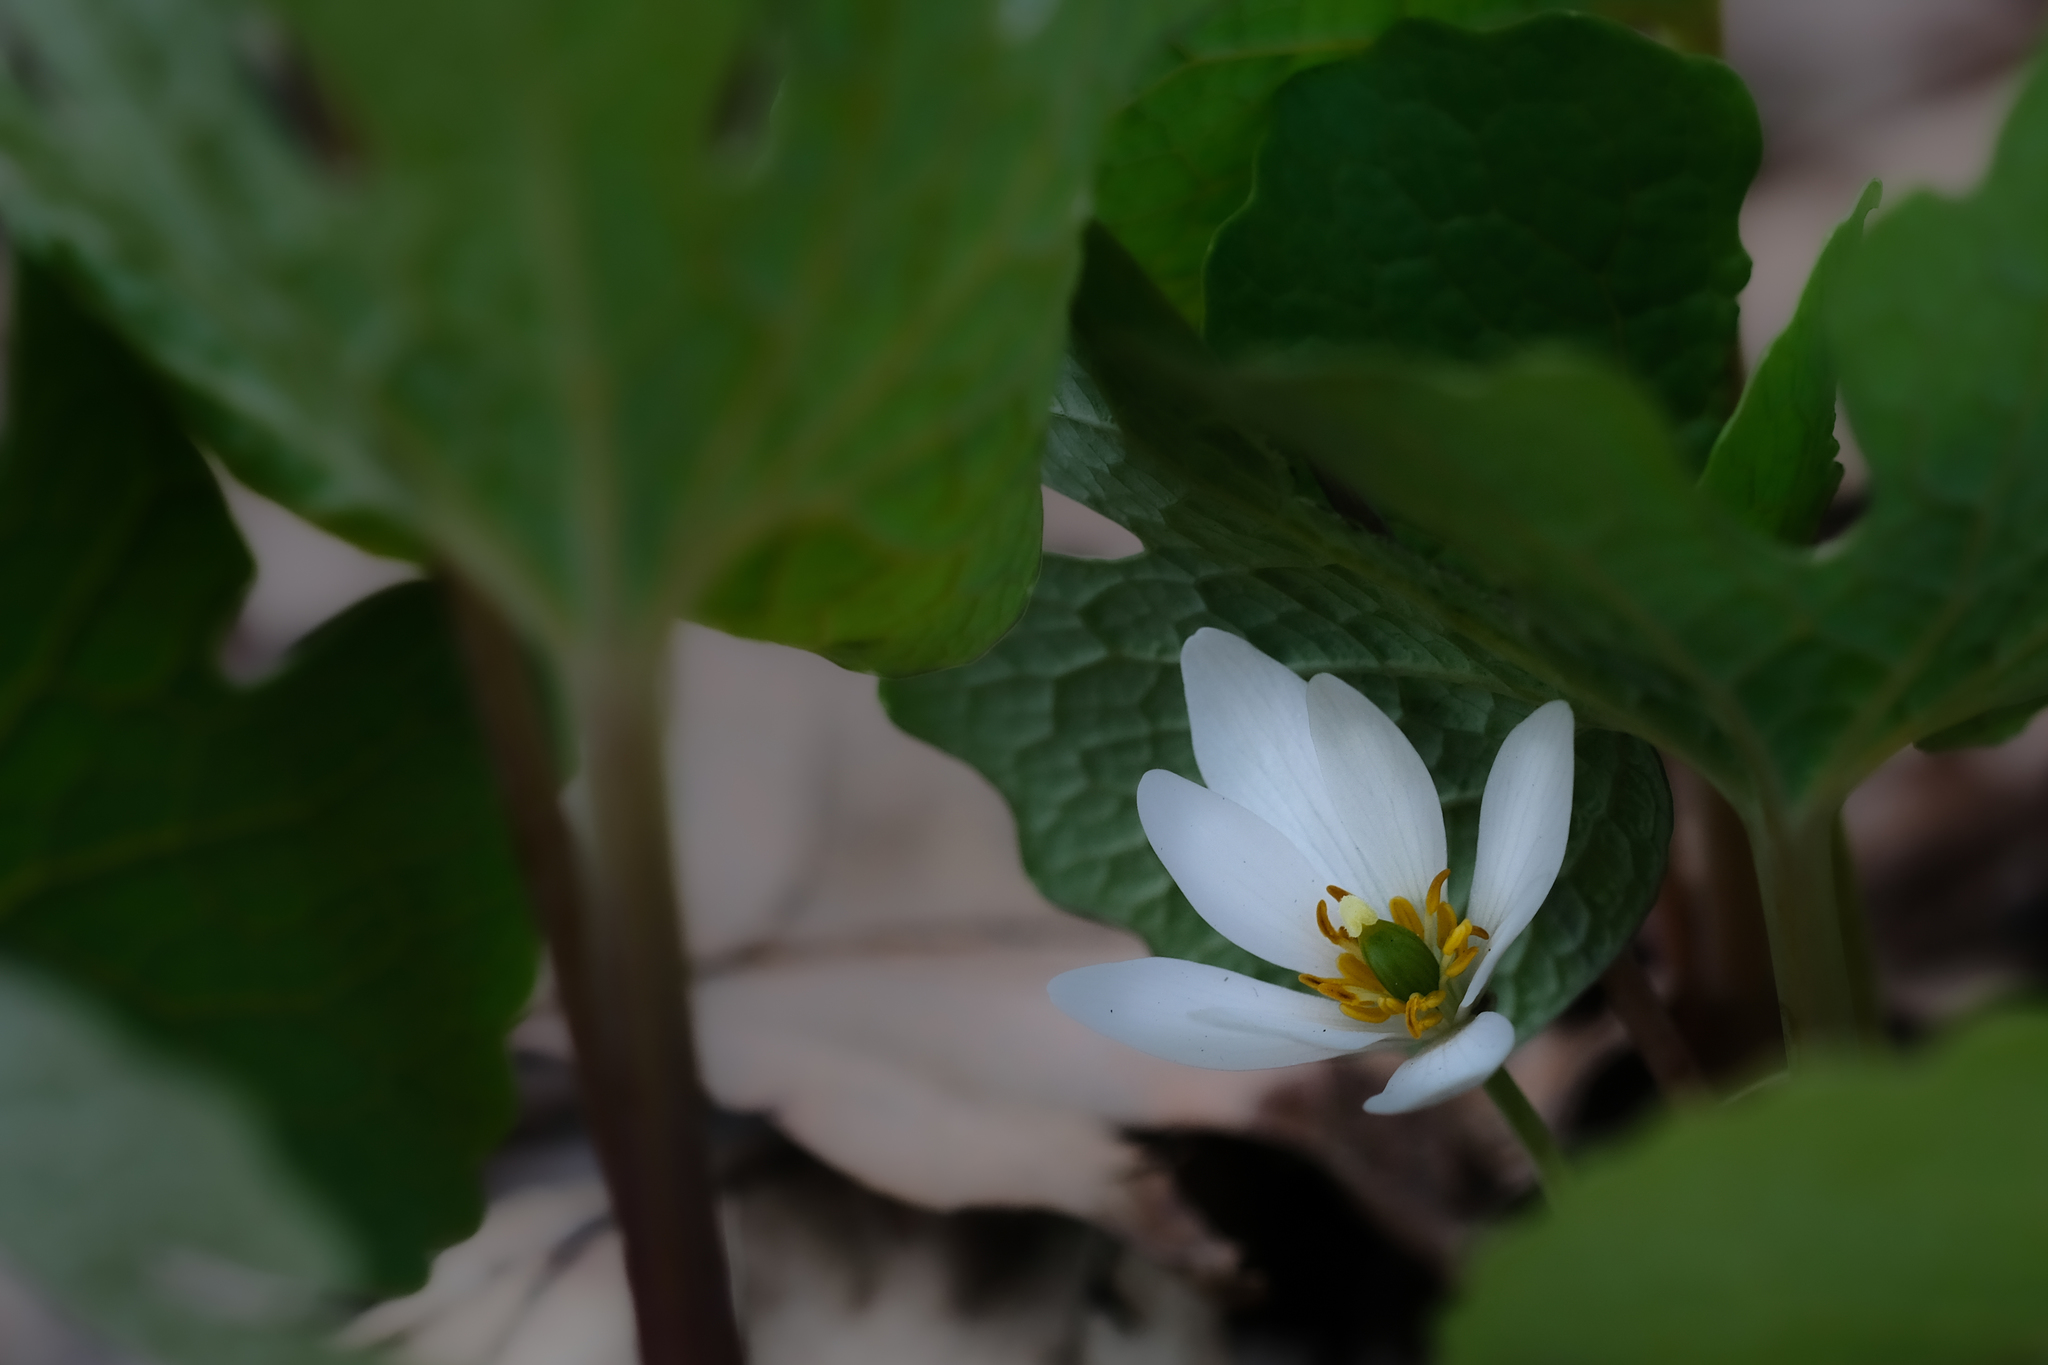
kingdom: Plantae
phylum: Tracheophyta
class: Magnoliopsida
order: Ranunculales
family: Papaveraceae
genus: Sanguinaria
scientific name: Sanguinaria canadensis
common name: Bloodroot
